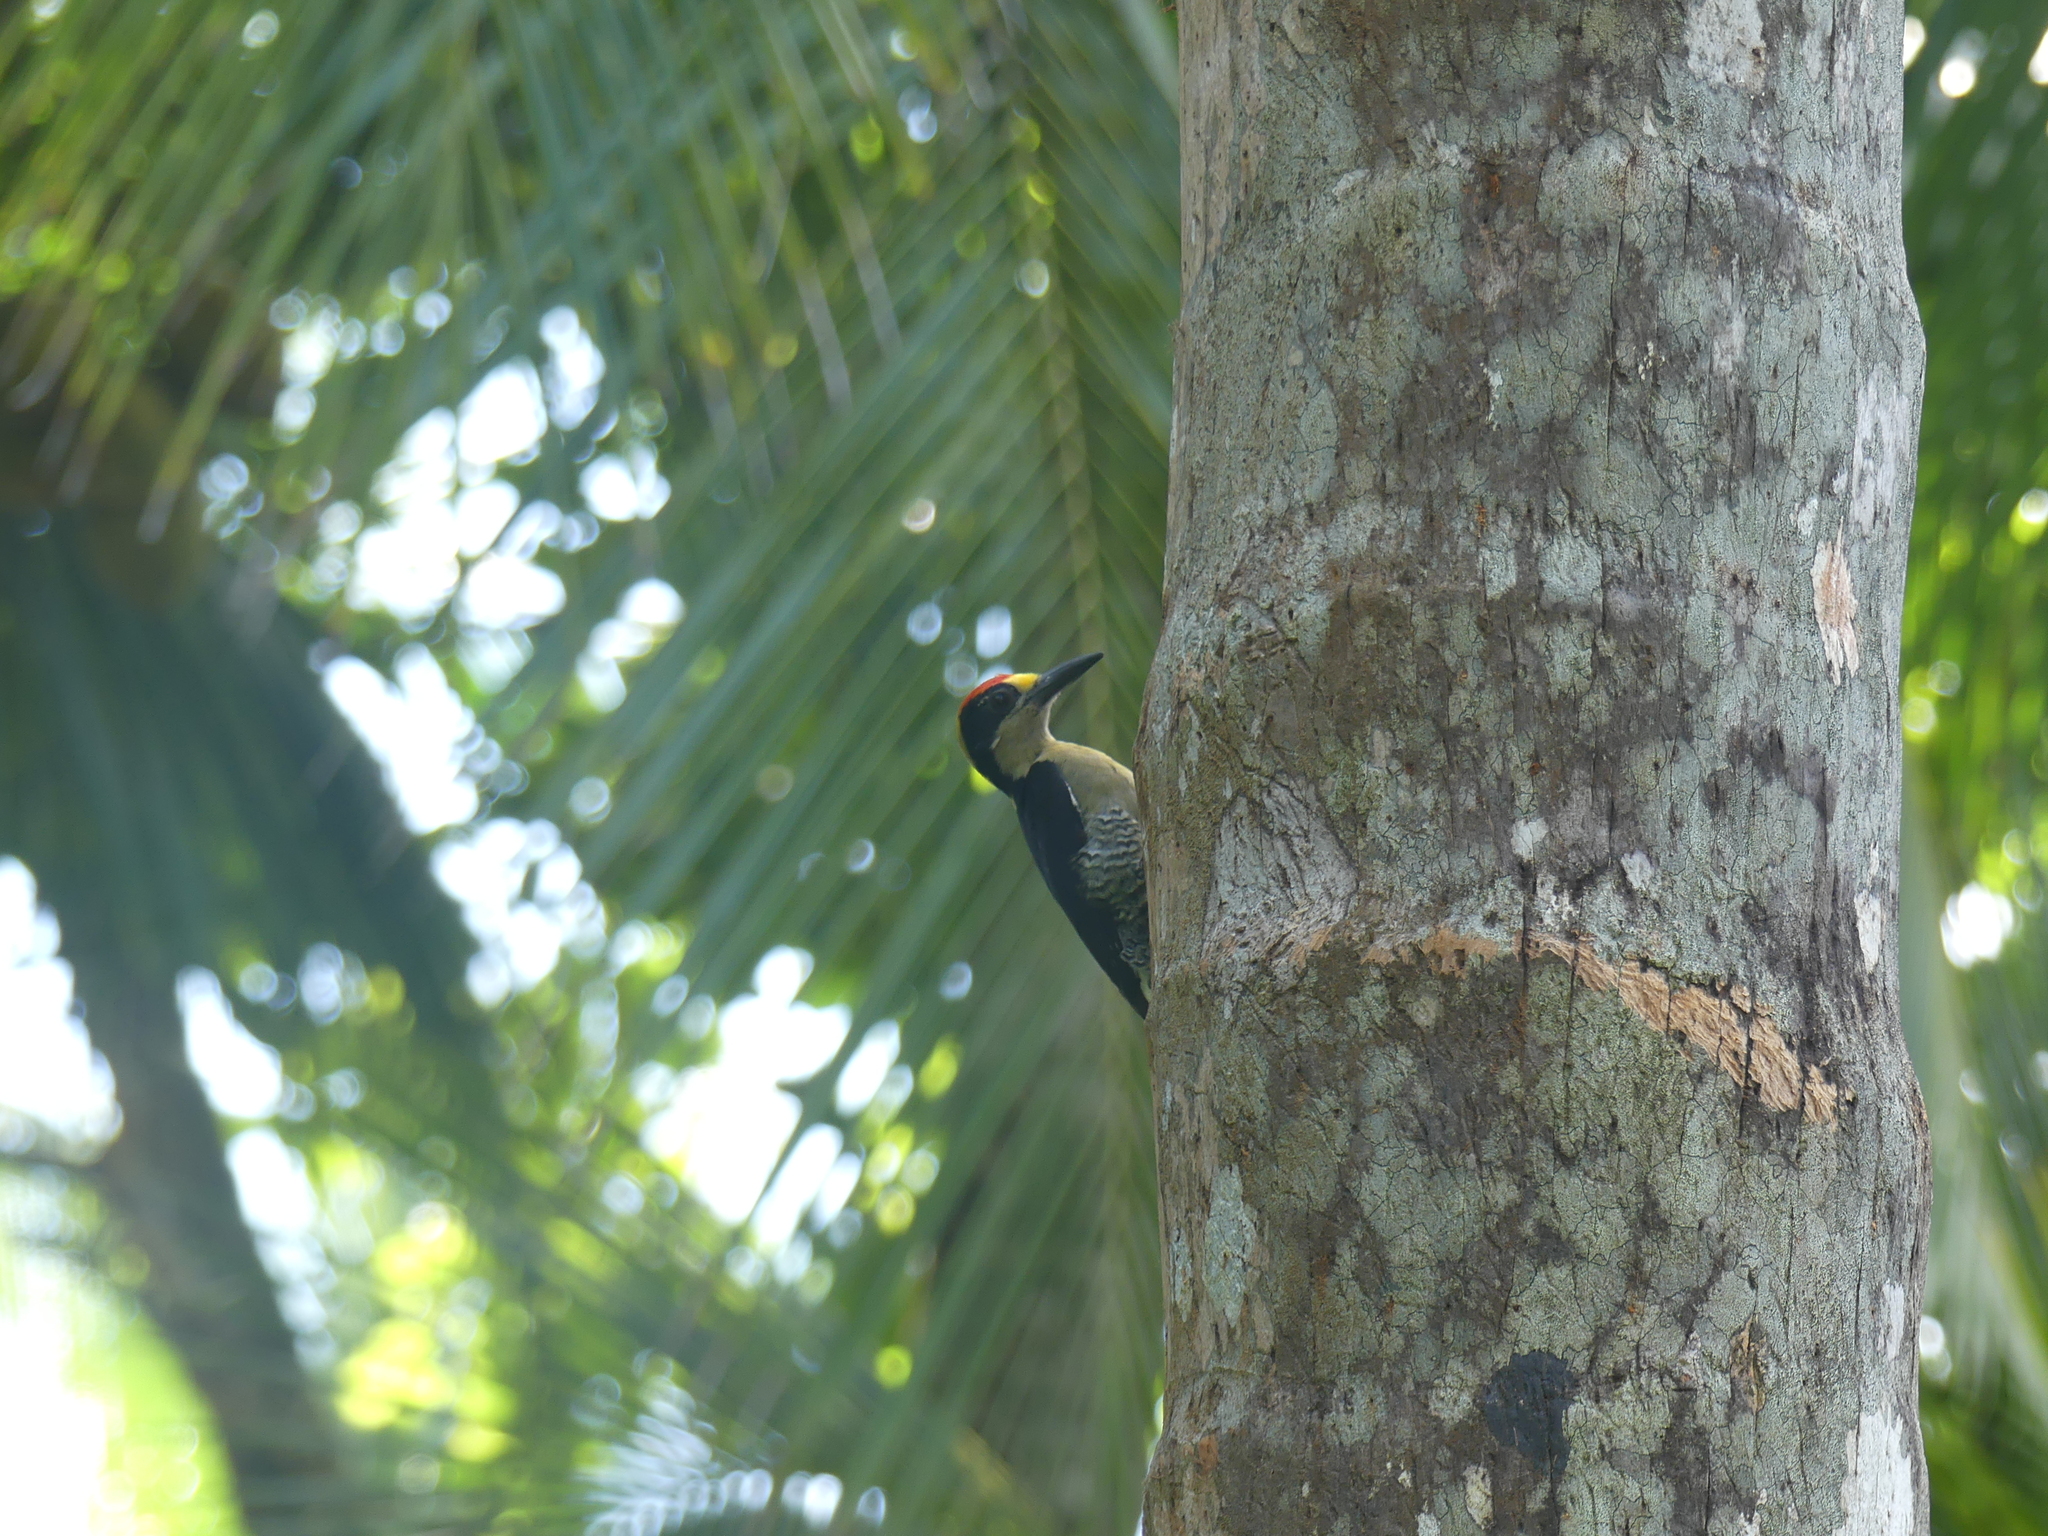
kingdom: Animalia
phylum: Chordata
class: Aves
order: Piciformes
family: Picidae
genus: Melanerpes
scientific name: Melanerpes chrysauchen
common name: Golden-naped woodpecker
